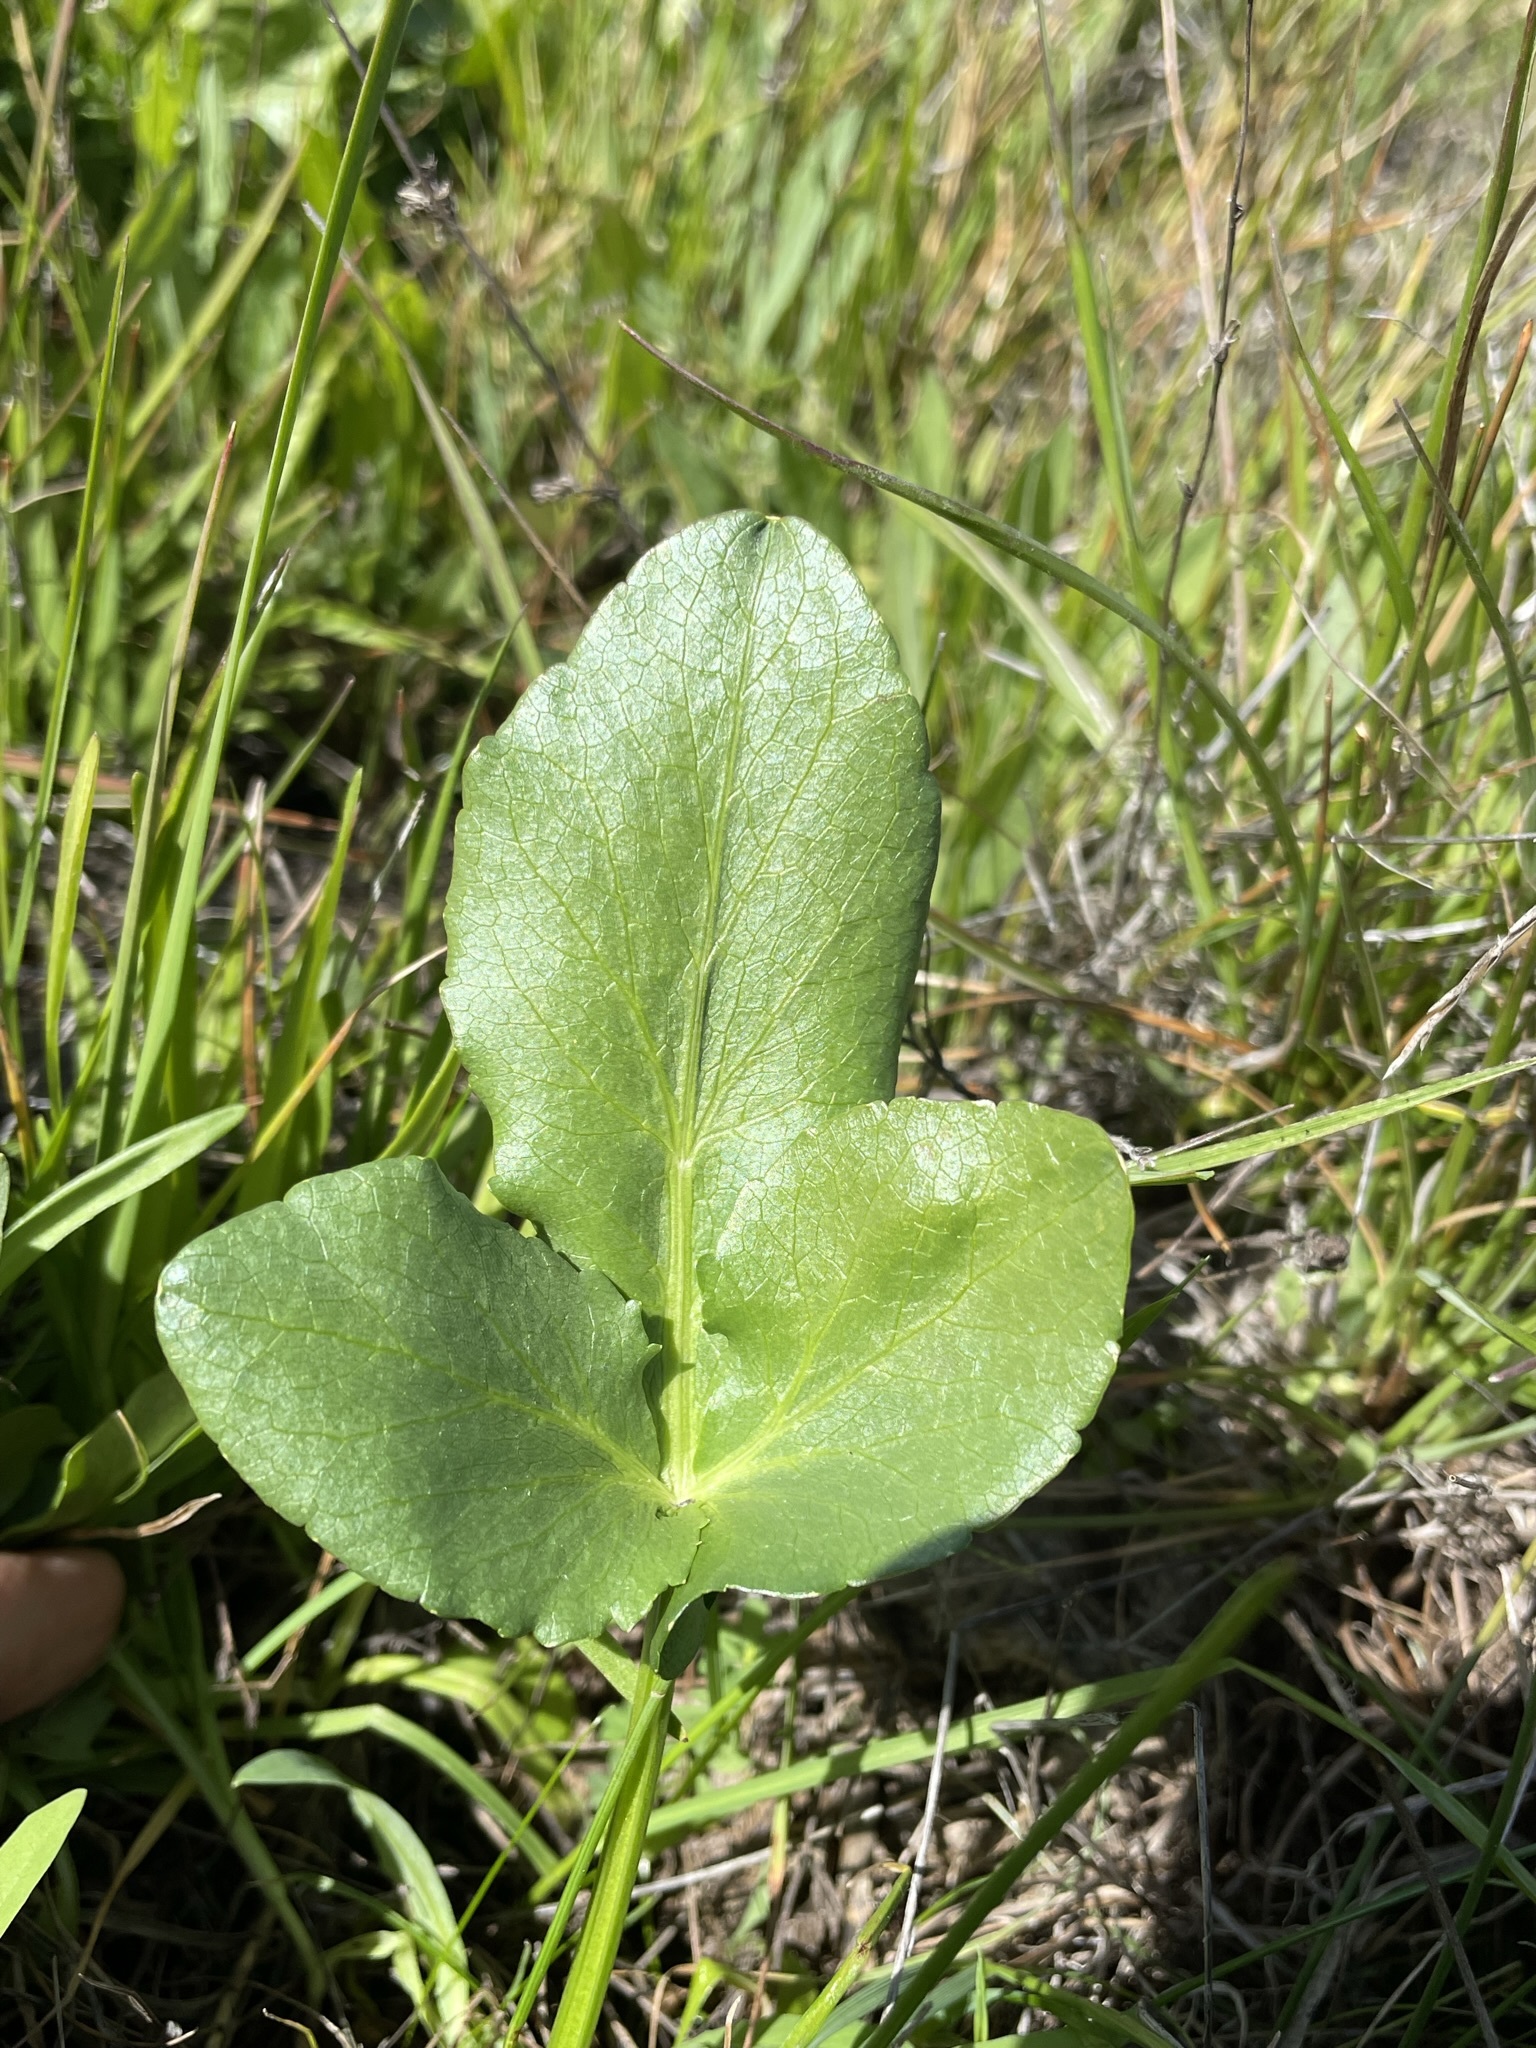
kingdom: Plantae
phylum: Tracheophyta
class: Magnoliopsida
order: Apiales
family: Apiaceae
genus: Sanicula
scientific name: Sanicula maritima
